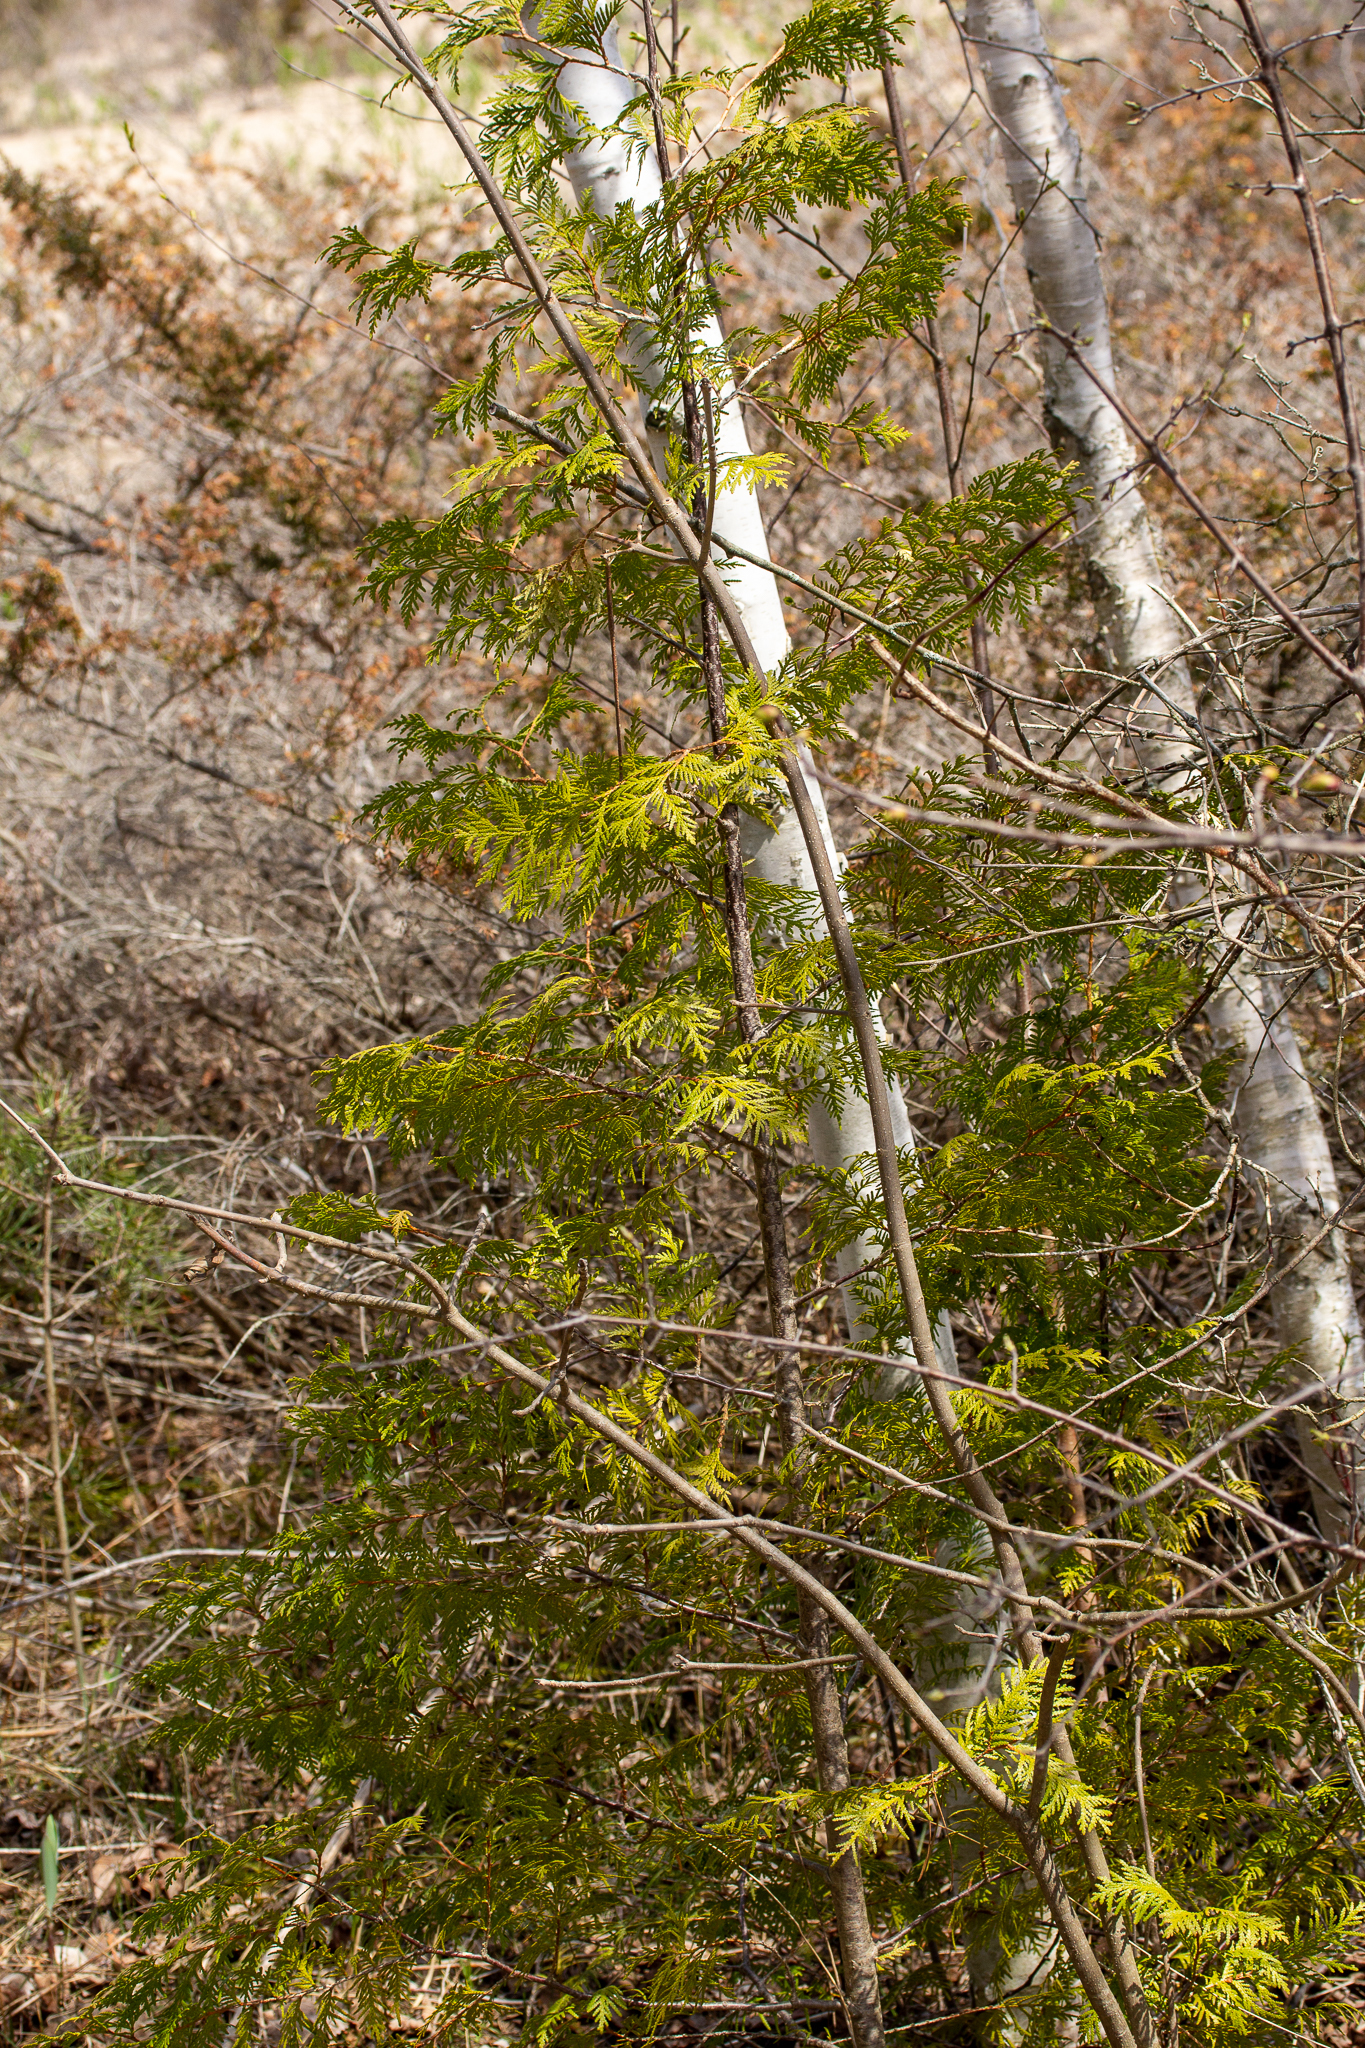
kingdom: Plantae
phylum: Tracheophyta
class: Pinopsida
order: Pinales
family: Cupressaceae
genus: Thuja
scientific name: Thuja occidentalis
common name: Northern white-cedar
